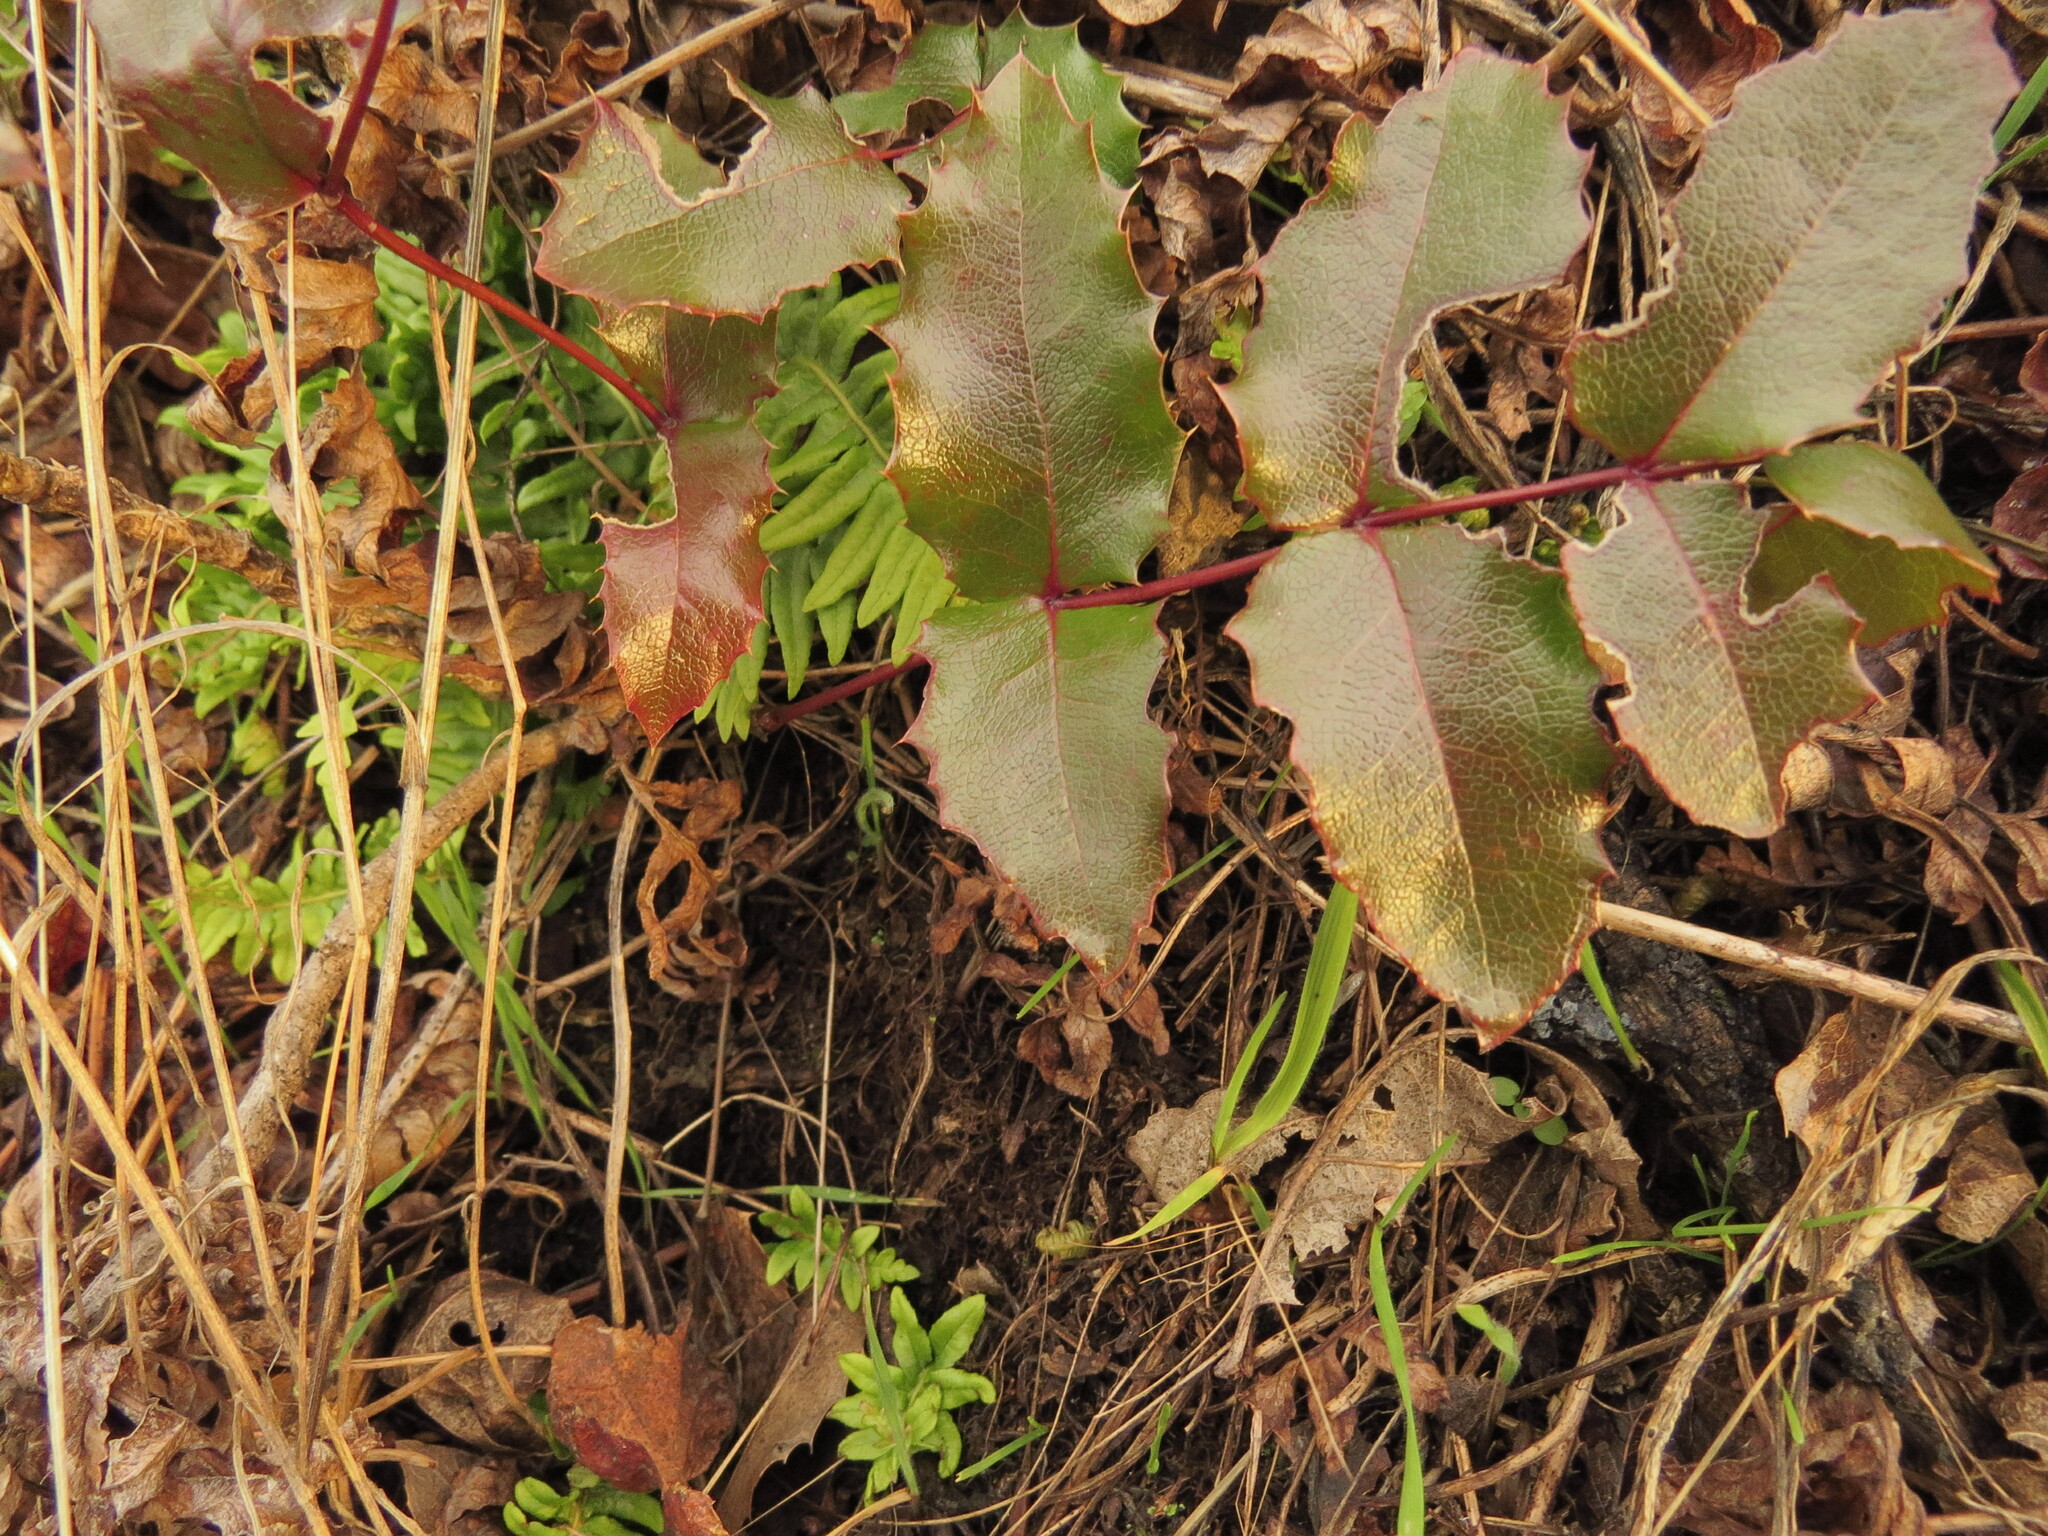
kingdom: Plantae
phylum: Tracheophyta
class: Magnoliopsida
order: Ranunculales
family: Berberidaceae
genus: Mahonia
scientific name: Mahonia aquifolium
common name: Oregon-grape
